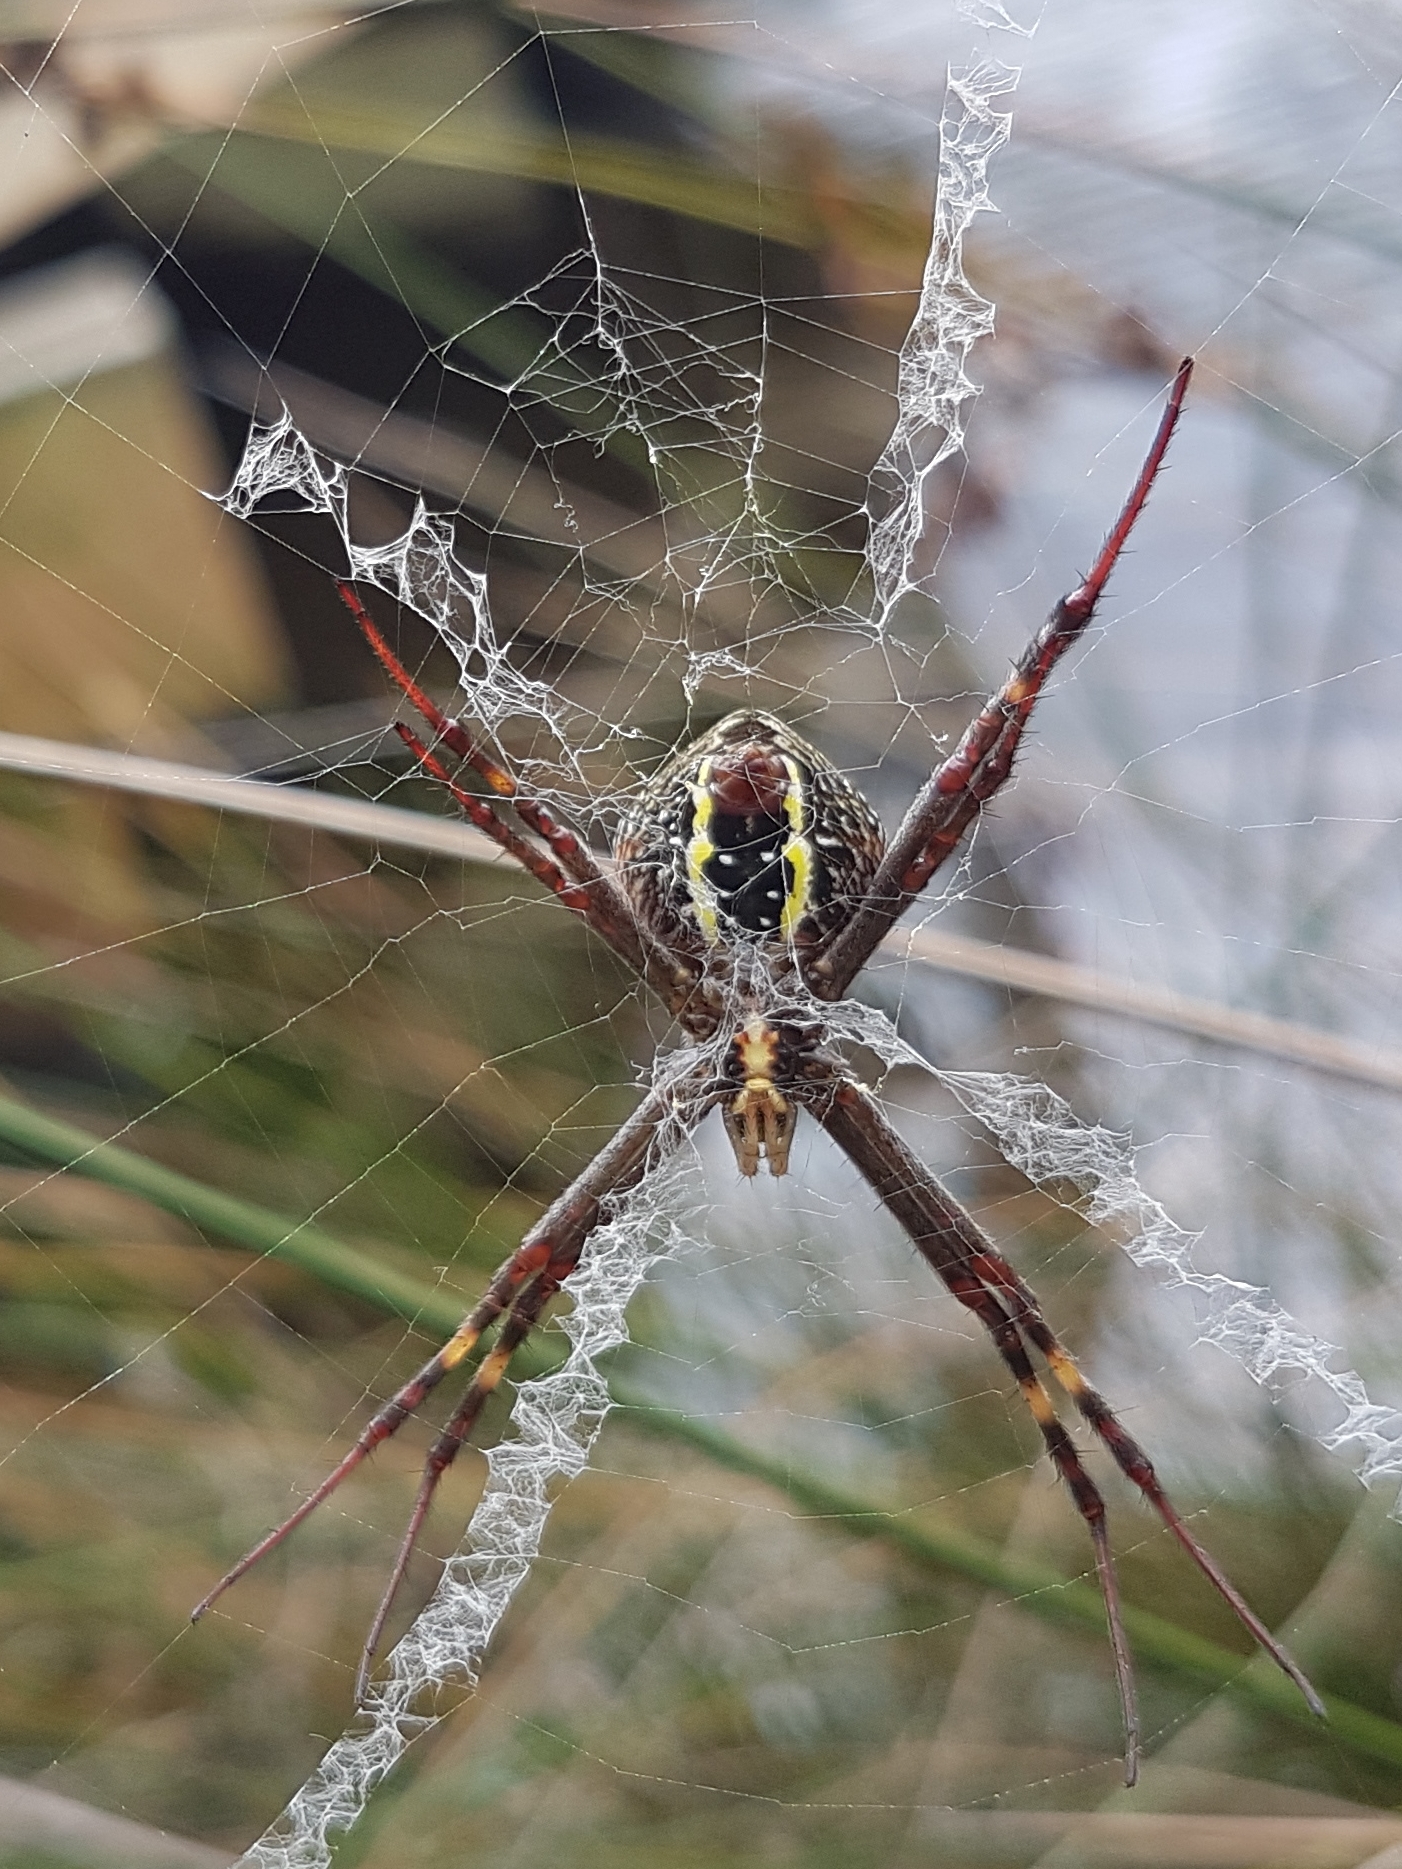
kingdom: Animalia
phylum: Arthropoda
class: Arachnida
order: Araneae
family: Araneidae
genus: Argiope
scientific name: Argiope keyserlingi
